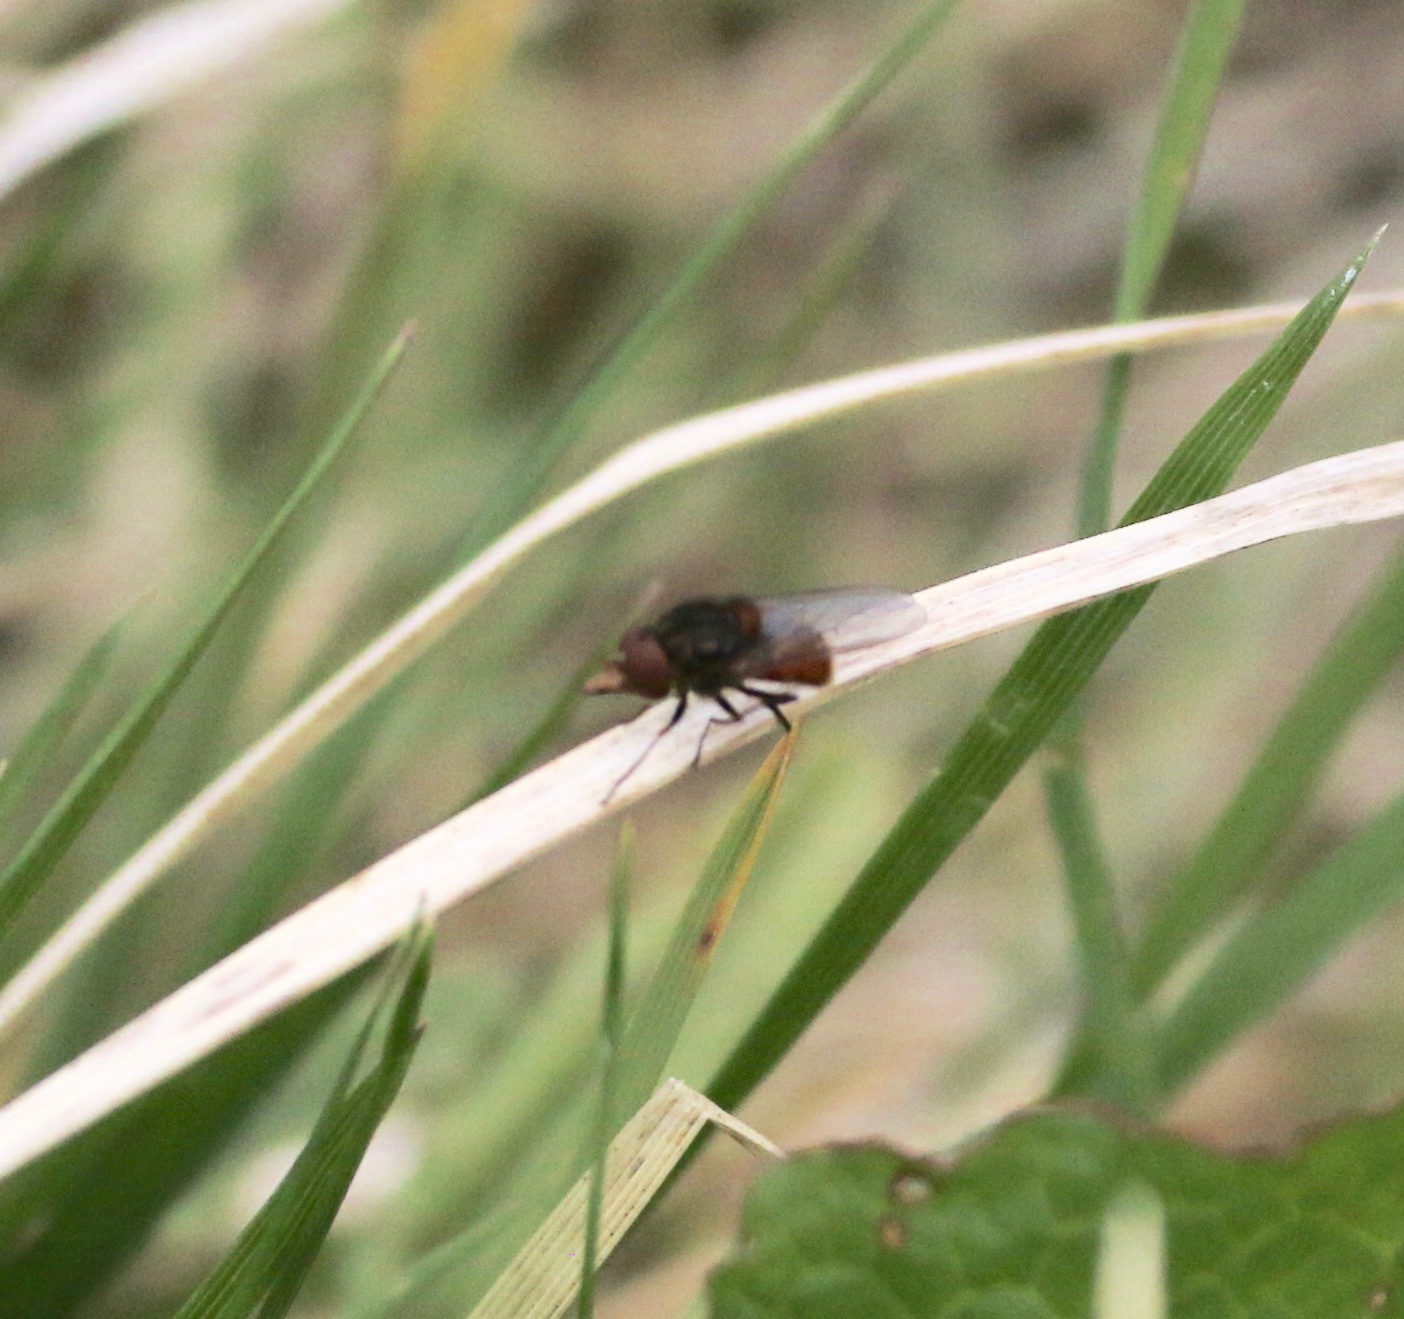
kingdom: Animalia
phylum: Arthropoda
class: Insecta
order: Diptera
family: Syrphidae
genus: Rhingia
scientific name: Rhingia campestris
